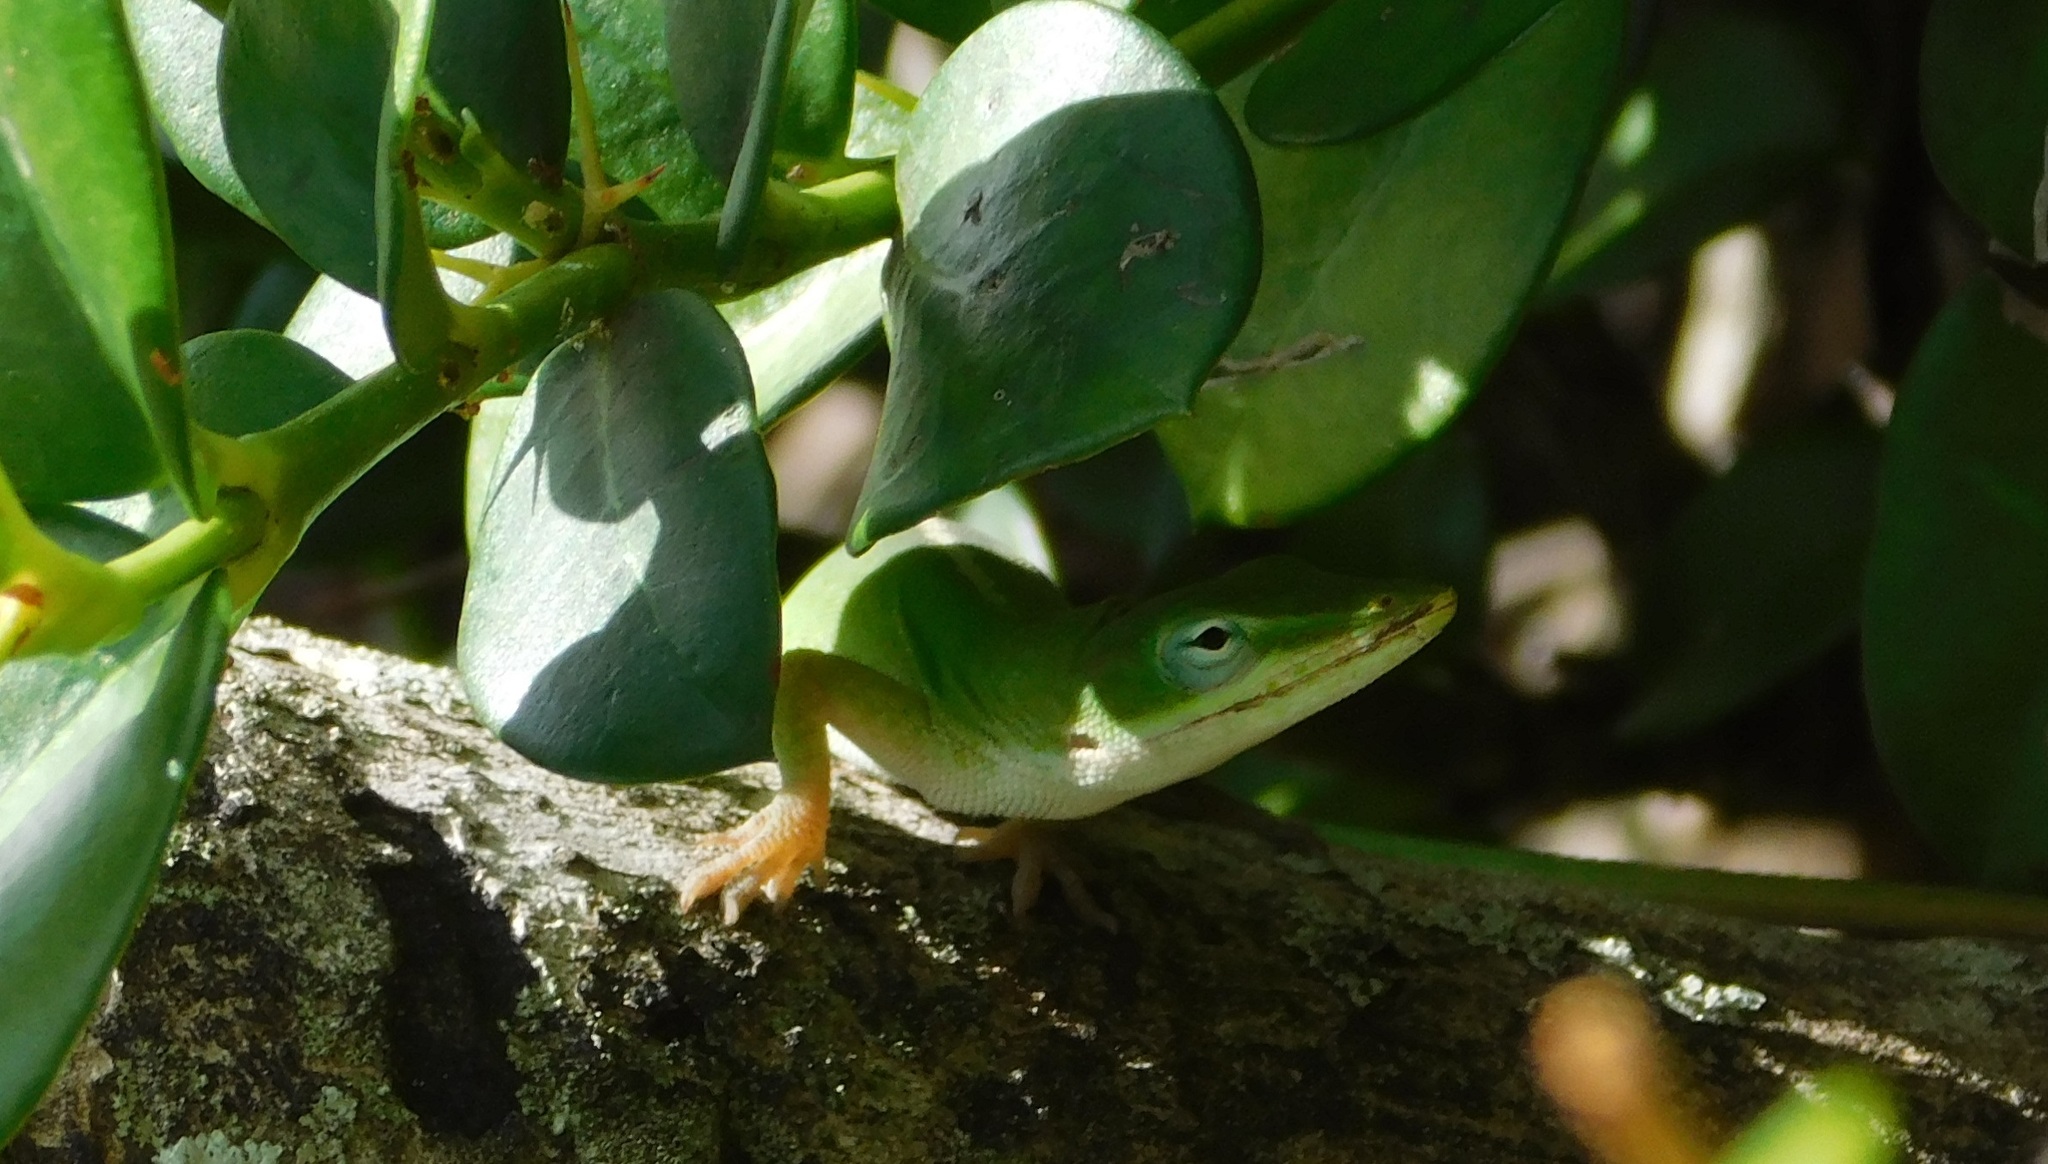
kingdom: Animalia
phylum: Chordata
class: Squamata
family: Dactyloidae
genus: Anolis
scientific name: Anolis carolinensis
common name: Green anole
